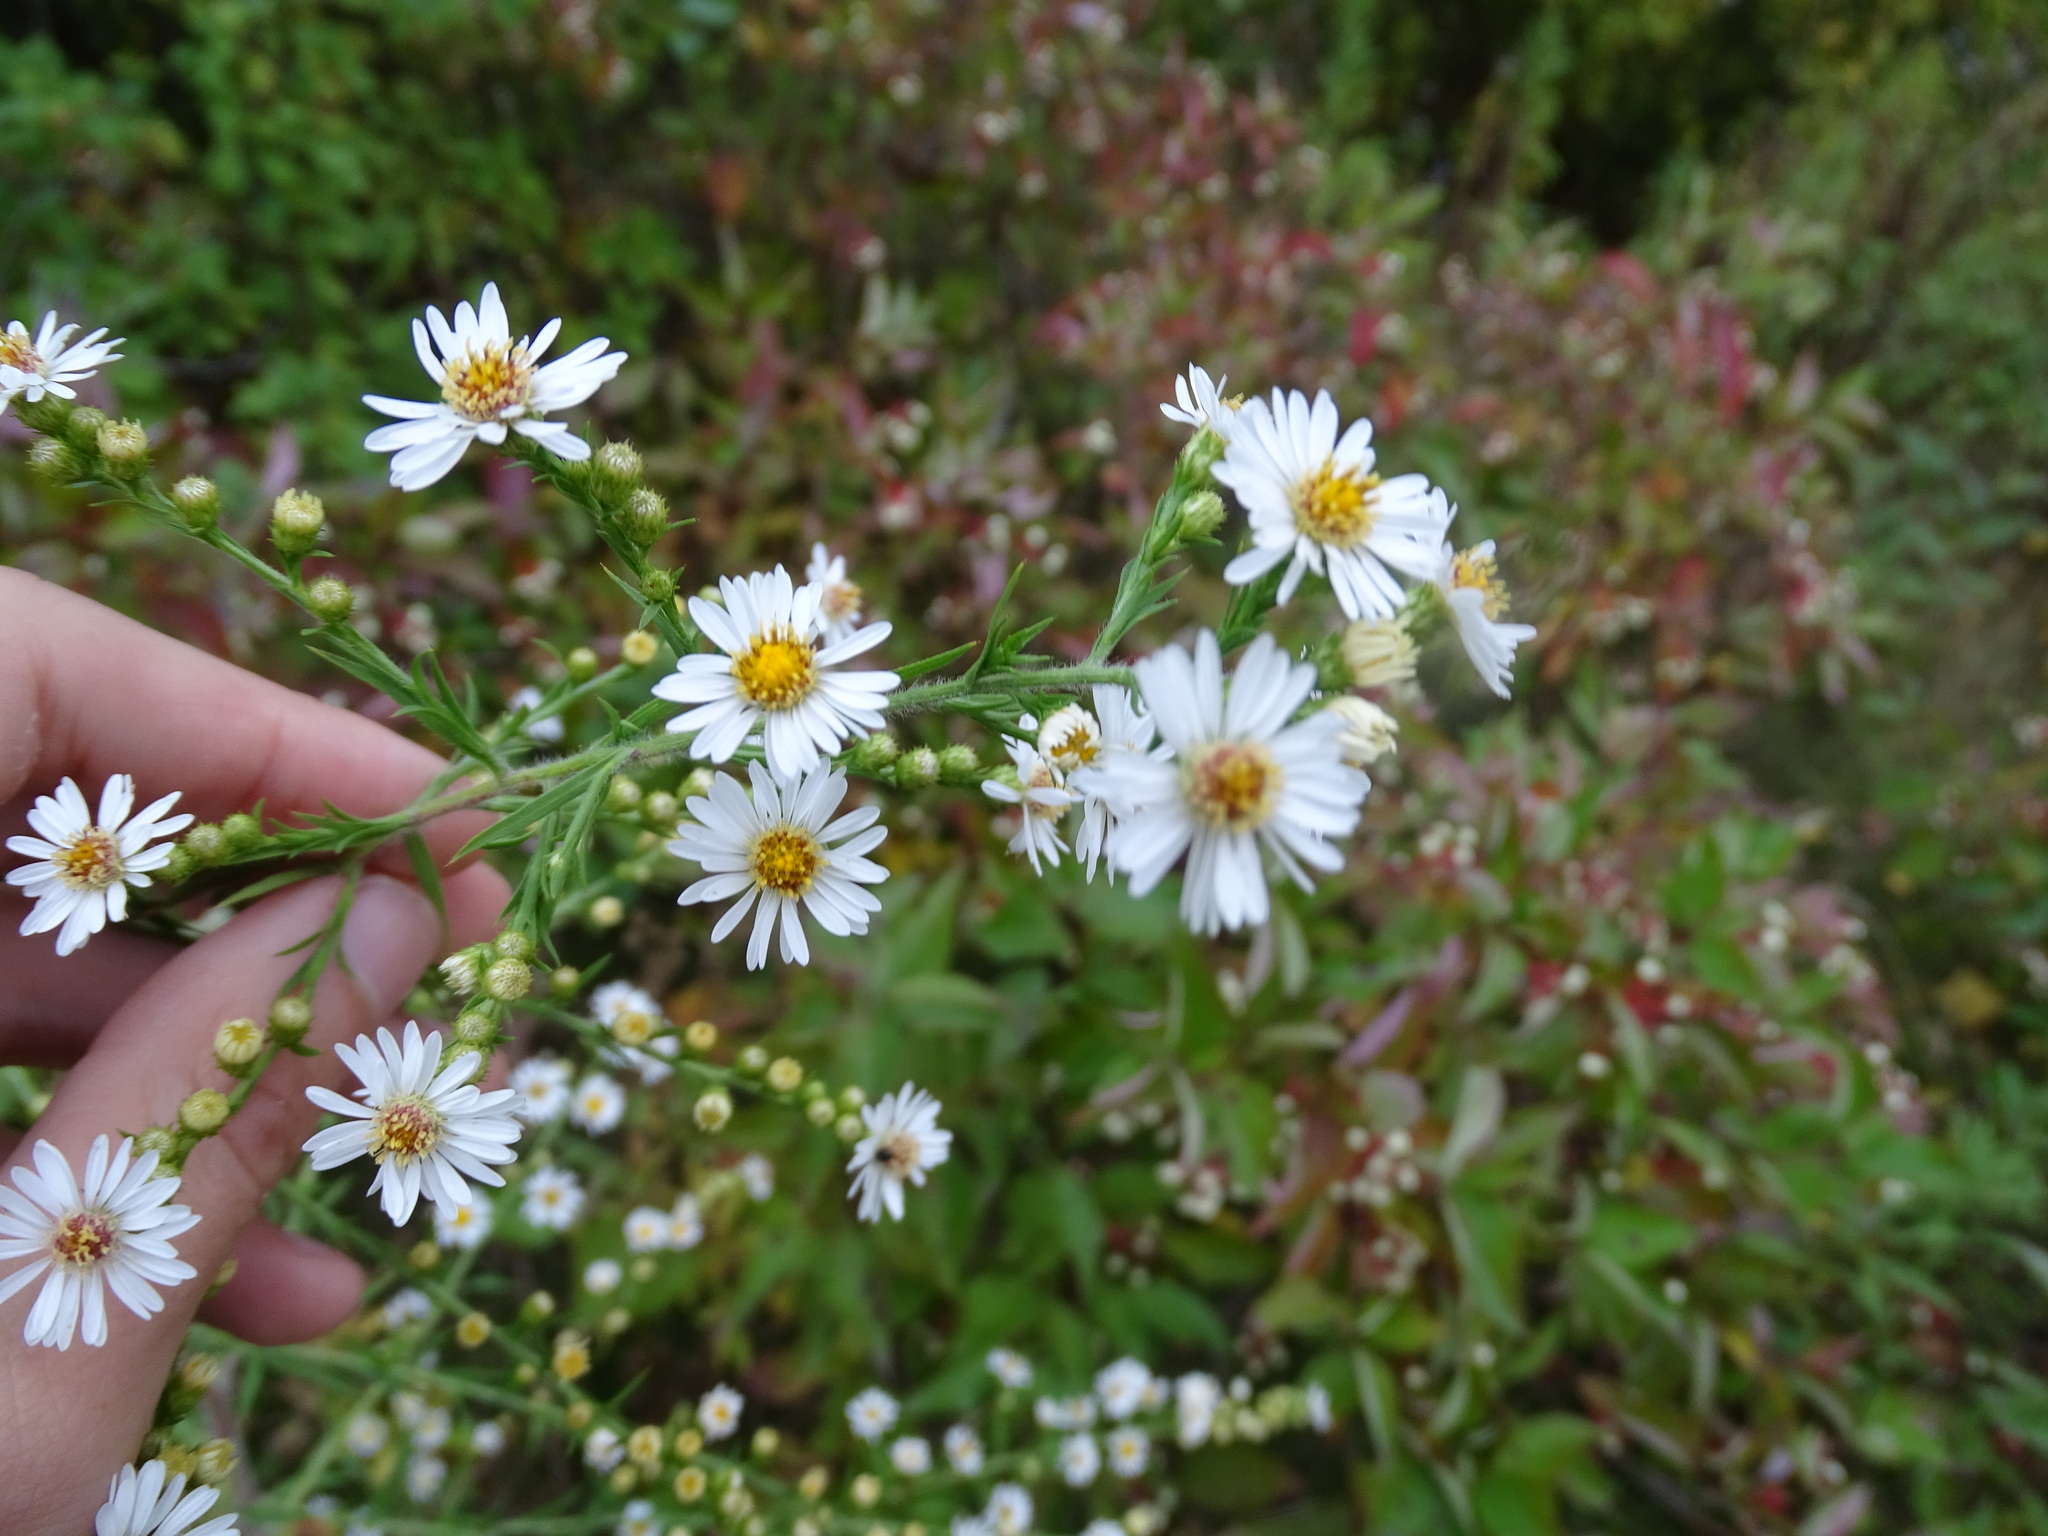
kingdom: Plantae
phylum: Tracheophyta
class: Magnoliopsida
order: Asterales
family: Asteraceae
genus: Symphyotrichum
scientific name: Symphyotrichum pilosum
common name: Awl aster
